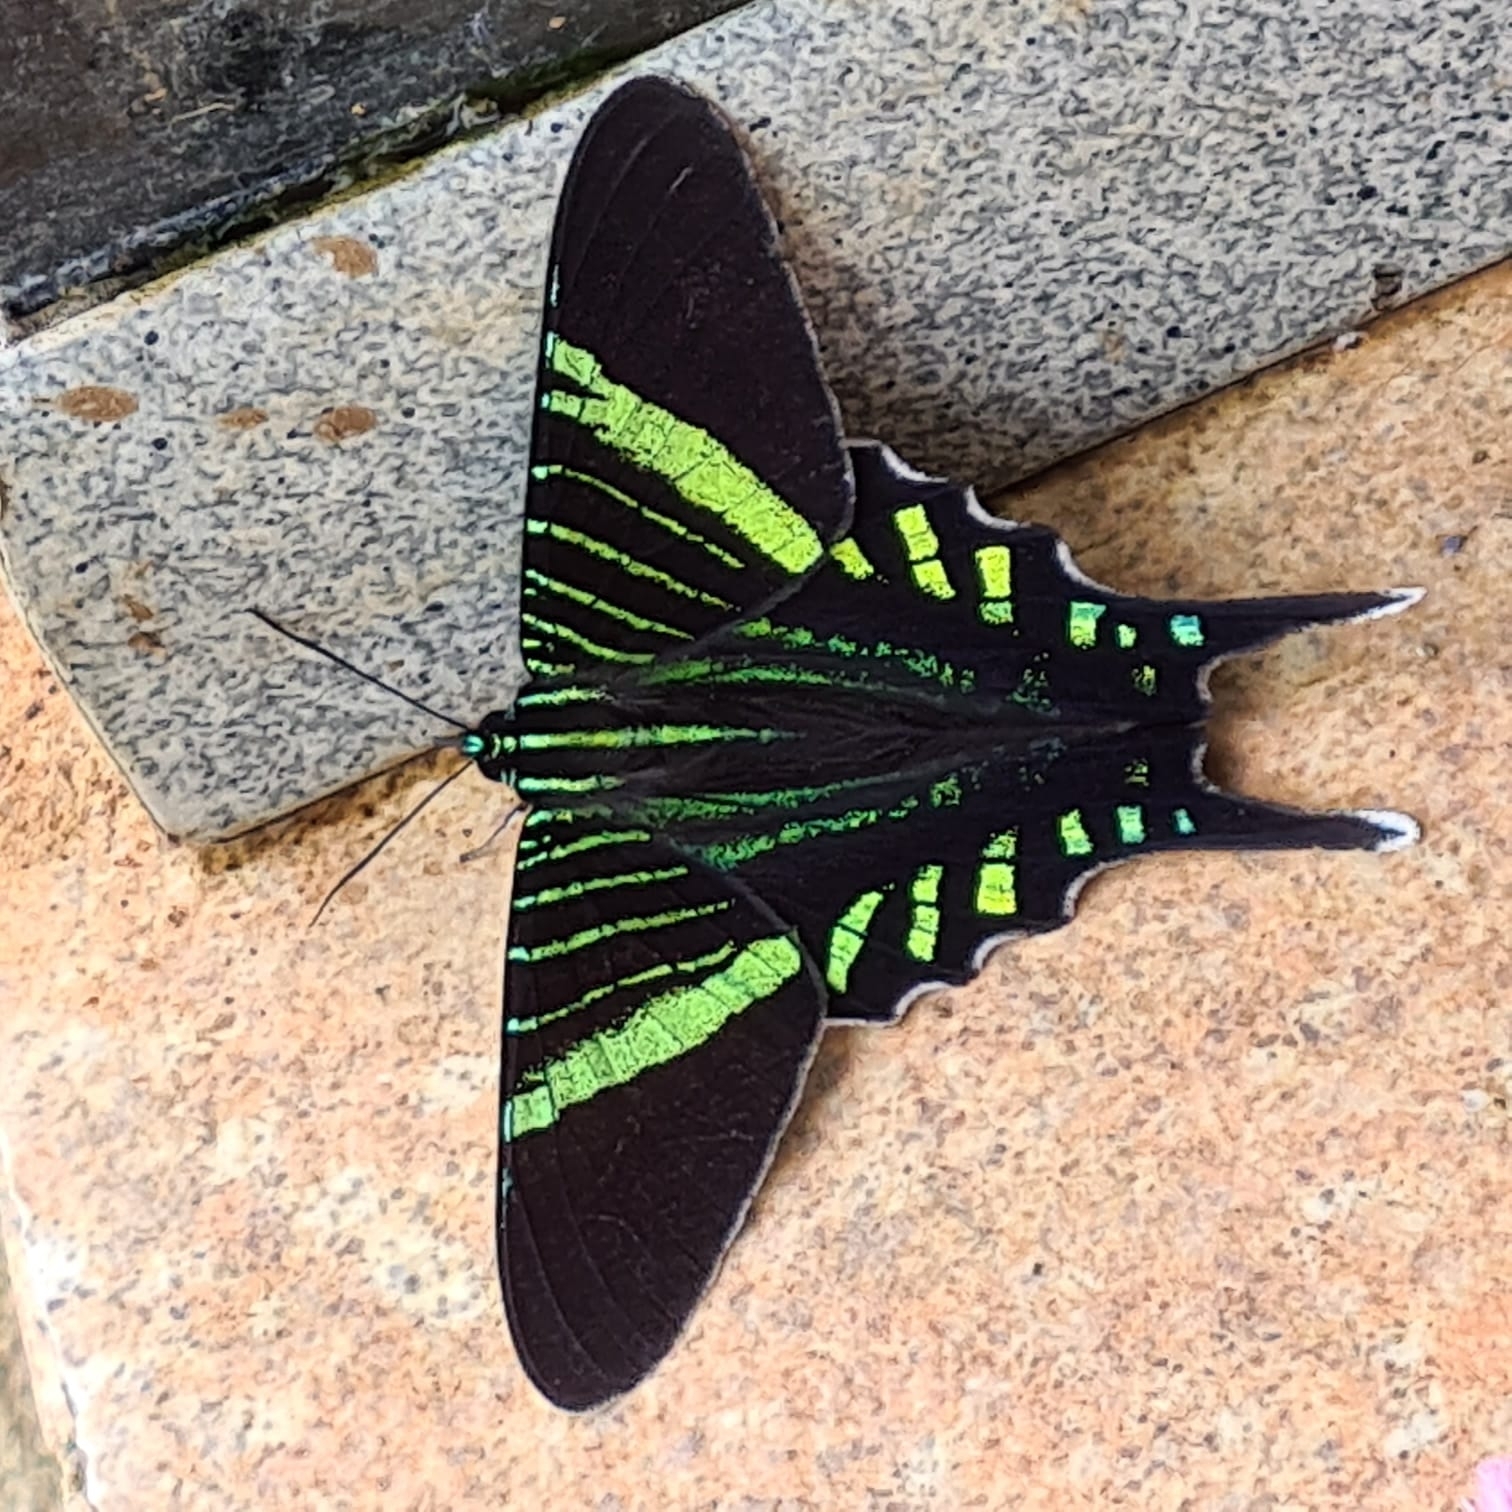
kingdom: Animalia
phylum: Arthropoda
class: Insecta
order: Lepidoptera
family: Uraniidae
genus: Urania
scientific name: Urania fulgens
